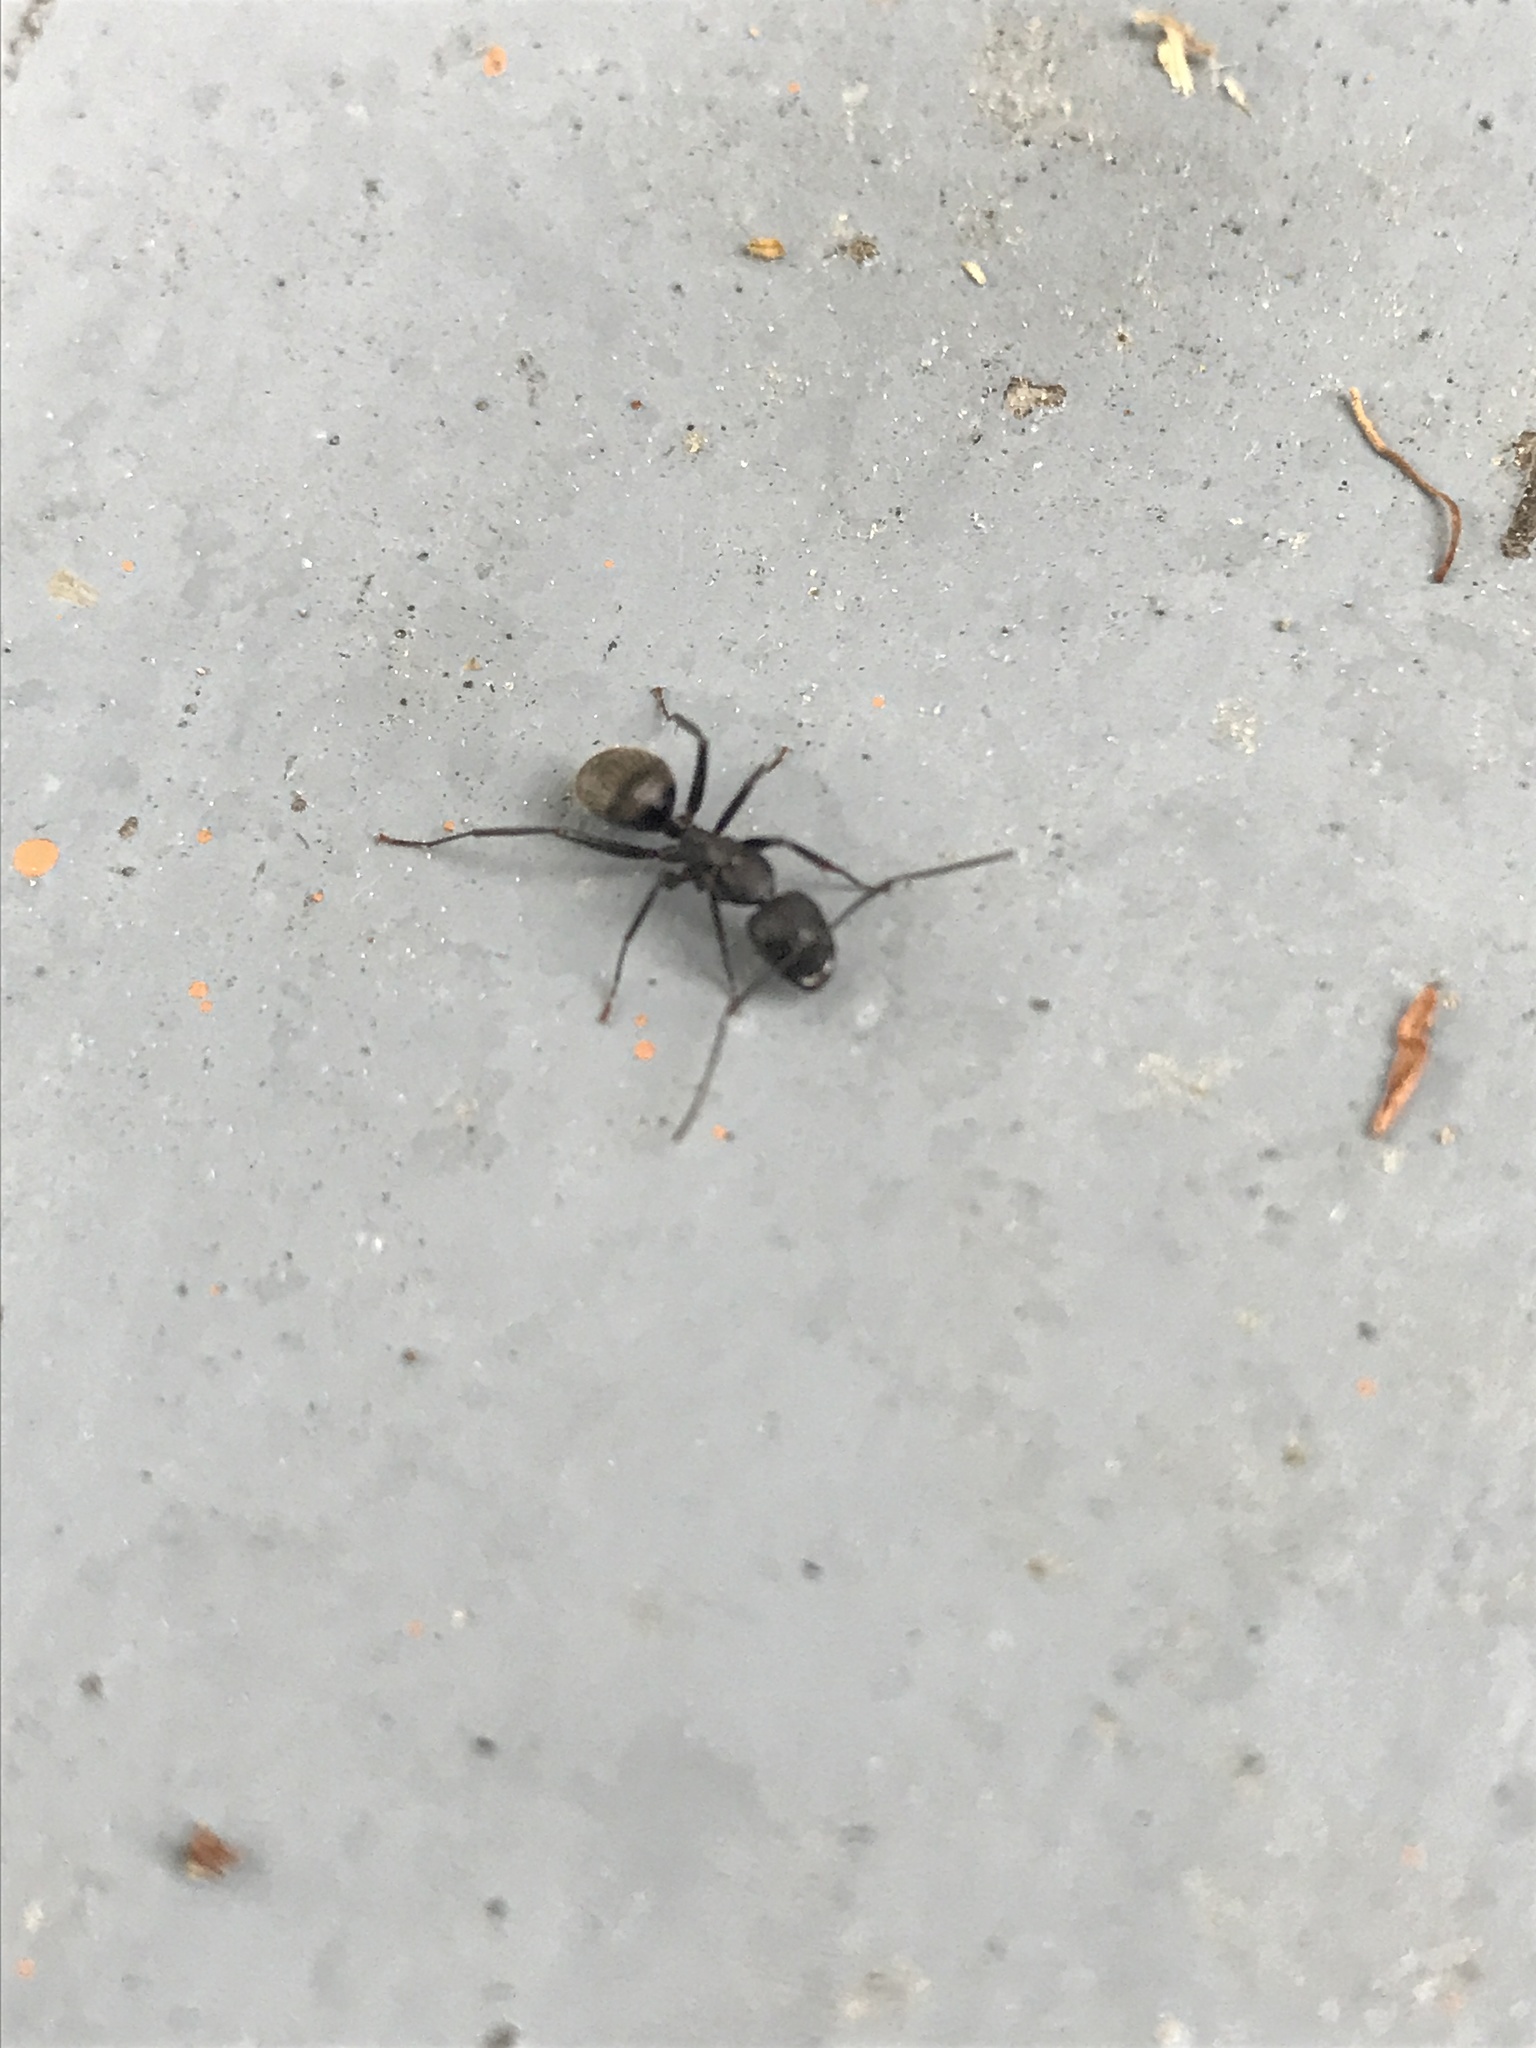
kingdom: Animalia
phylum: Arthropoda
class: Insecta
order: Hymenoptera
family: Formicidae
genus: Camponotus
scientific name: Camponotus pennsylvanicus
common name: Black carpenter ant
